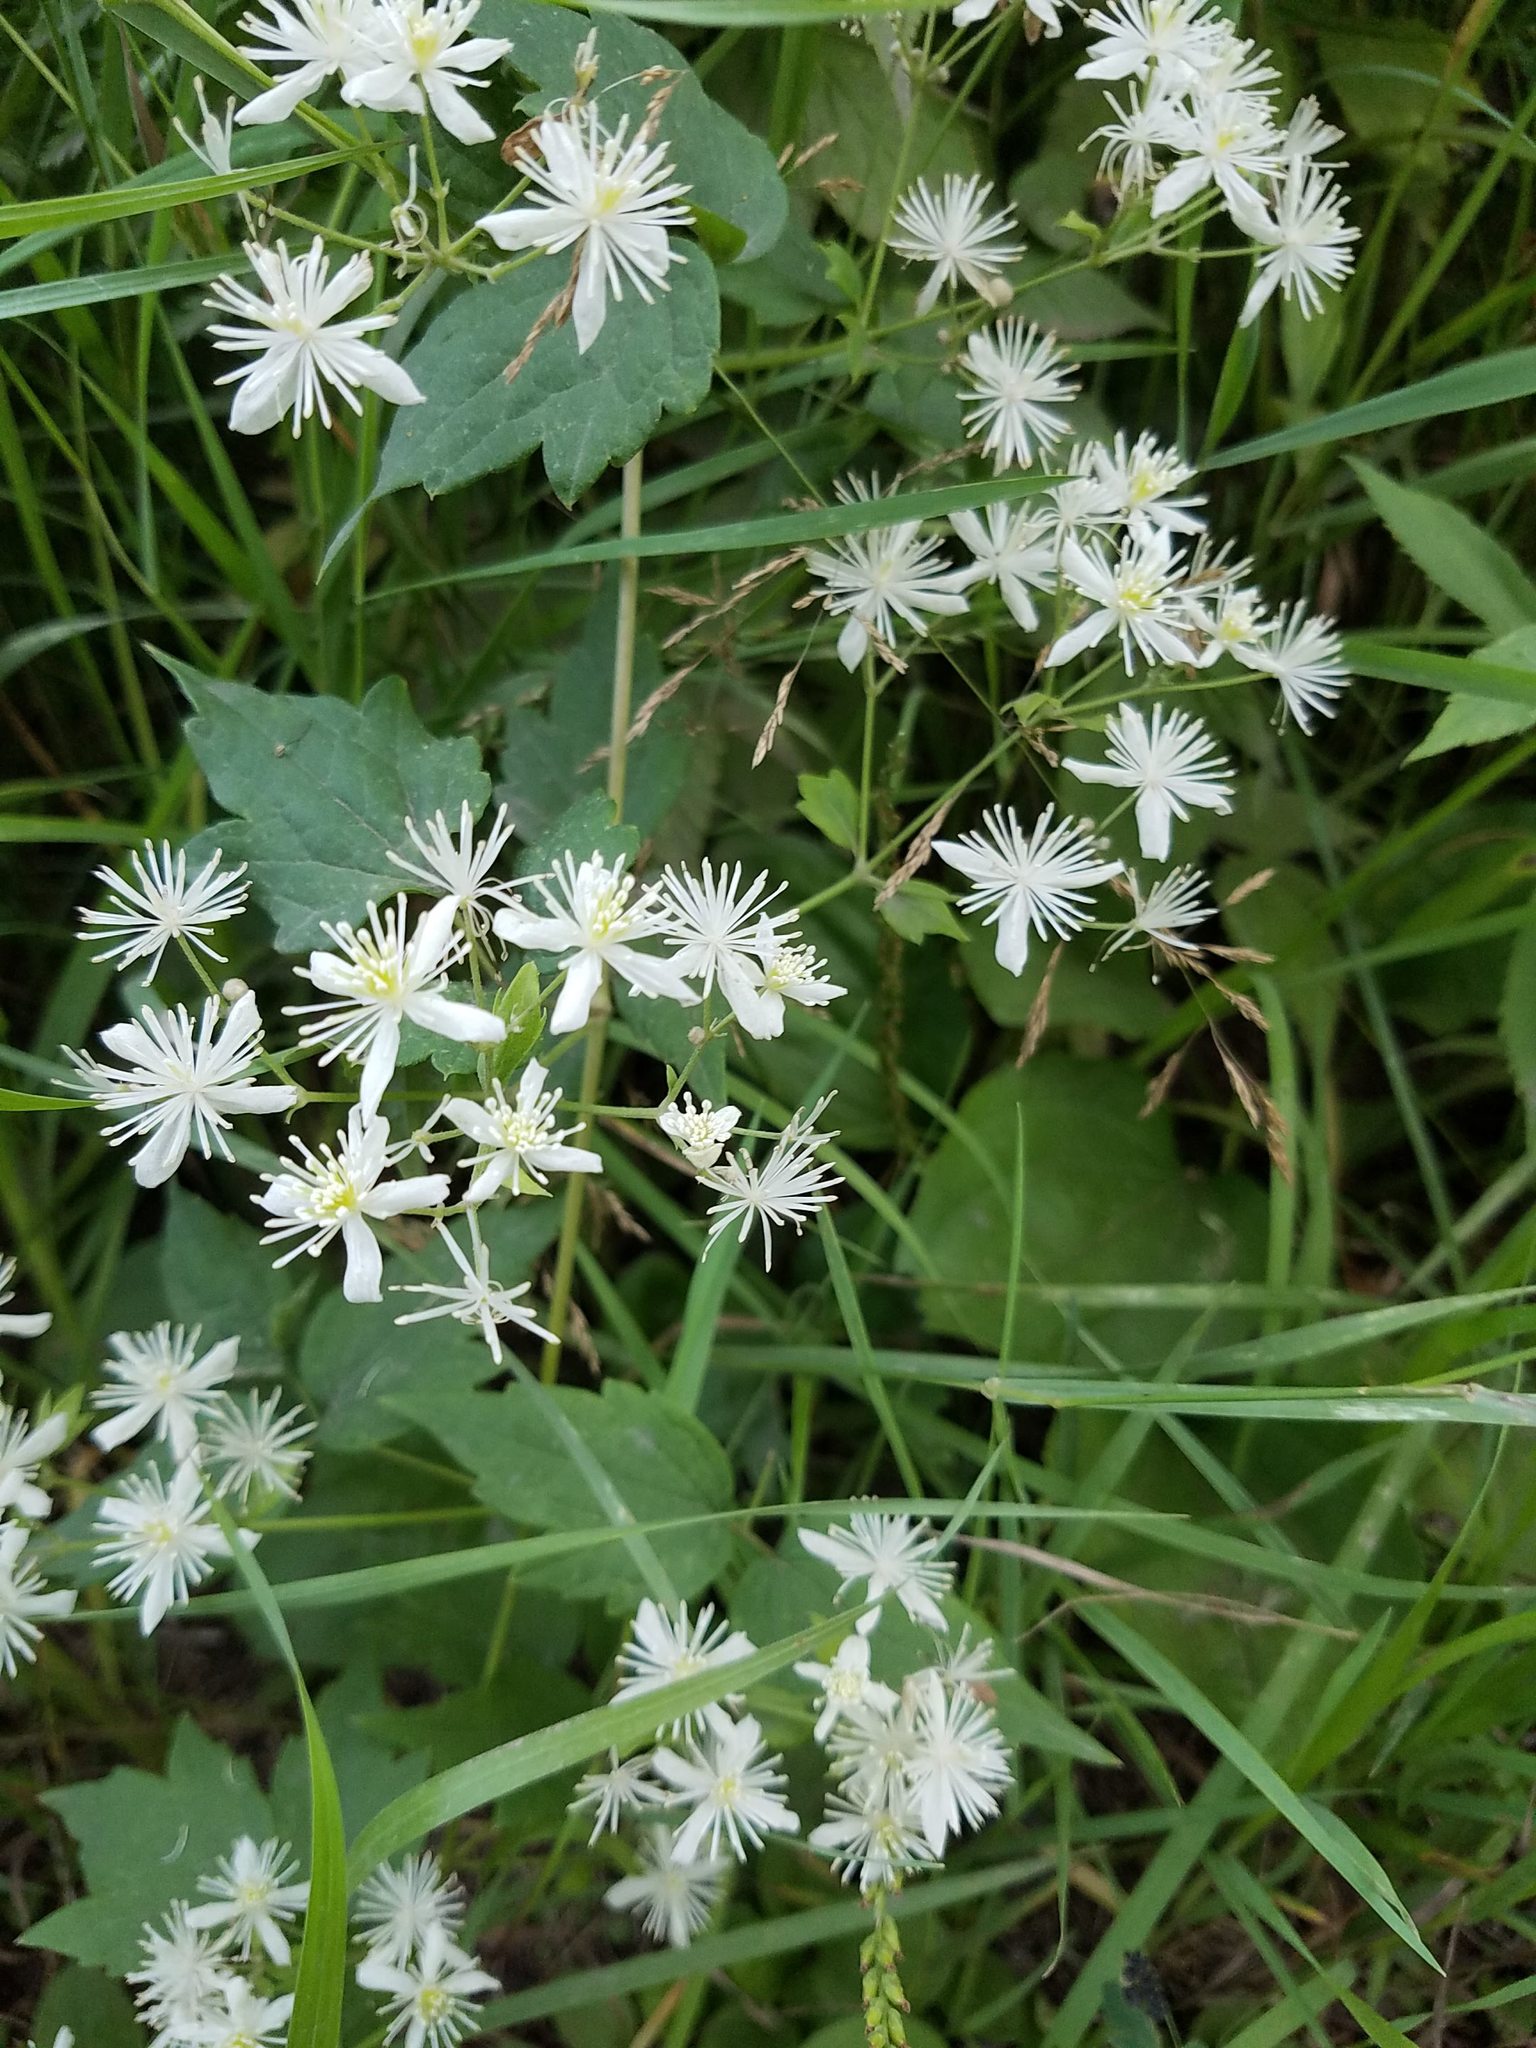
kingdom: Plantae
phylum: Tracheophyta
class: Magnoliopsida
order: Ranunculales
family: Ranunculaceae
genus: Clematis
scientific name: Clematis virginiana
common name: Virgin's-bower
